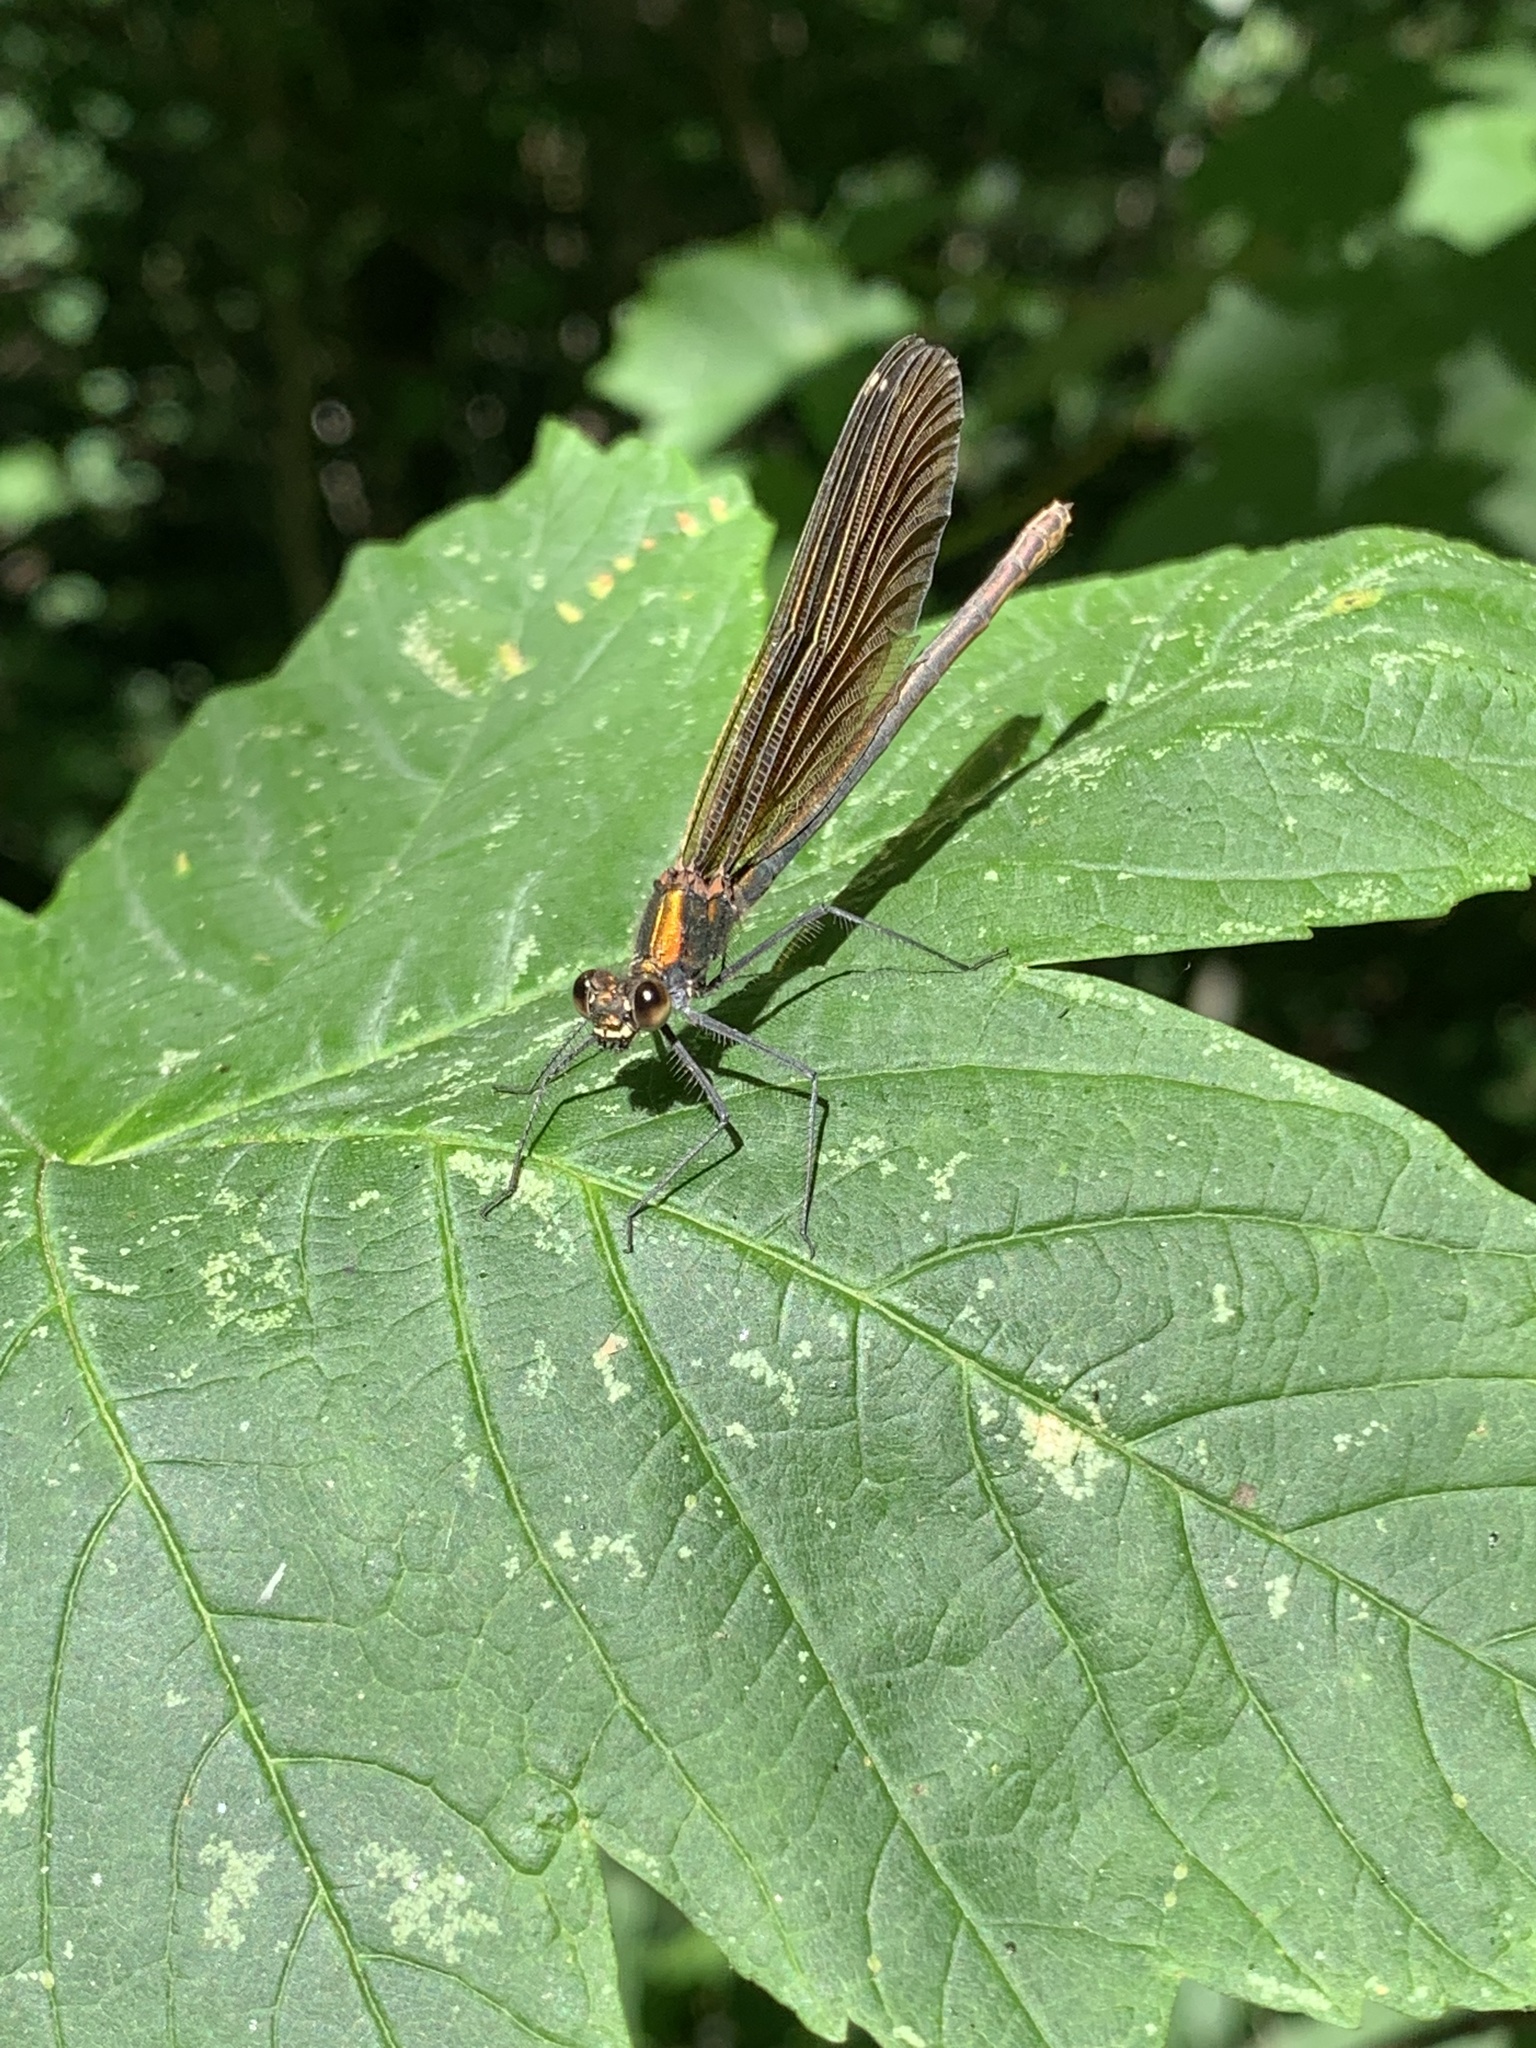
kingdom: Animalia
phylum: Arthropoda
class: Insecta
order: Odonata
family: Calopterygidae
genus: Calopteryx
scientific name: Calopteryx virgo
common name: Beautiful demoiselle
